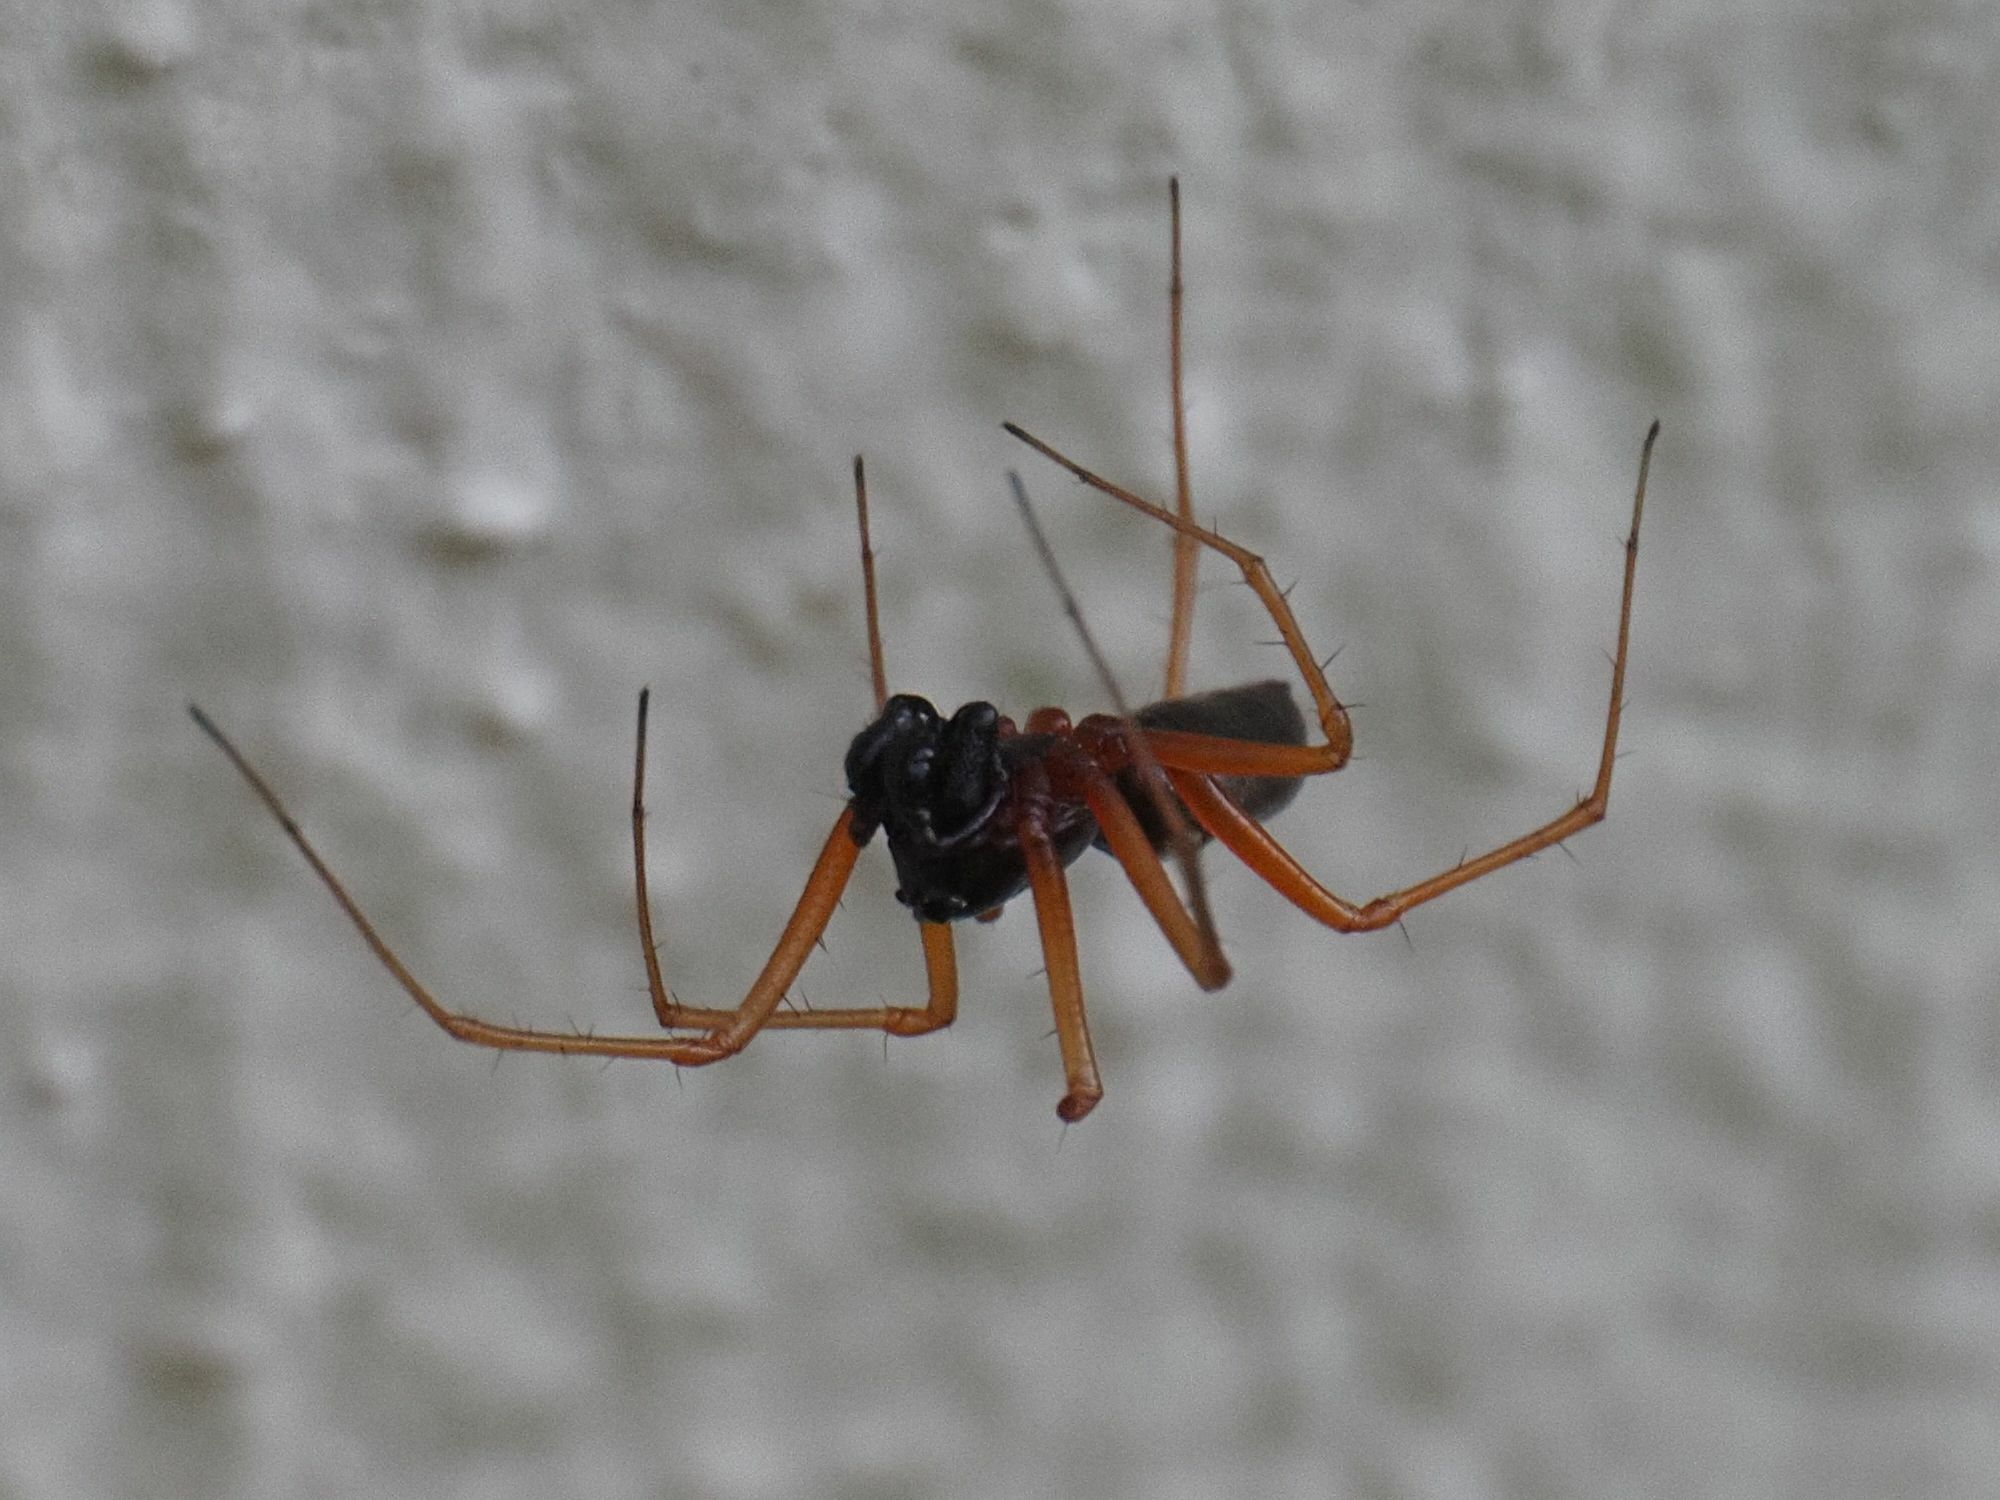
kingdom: Animalia
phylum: Arthropoda
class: Arachnida
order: Araneae
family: Linyphiidae
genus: Linyphia
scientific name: Linyphia hortensis
